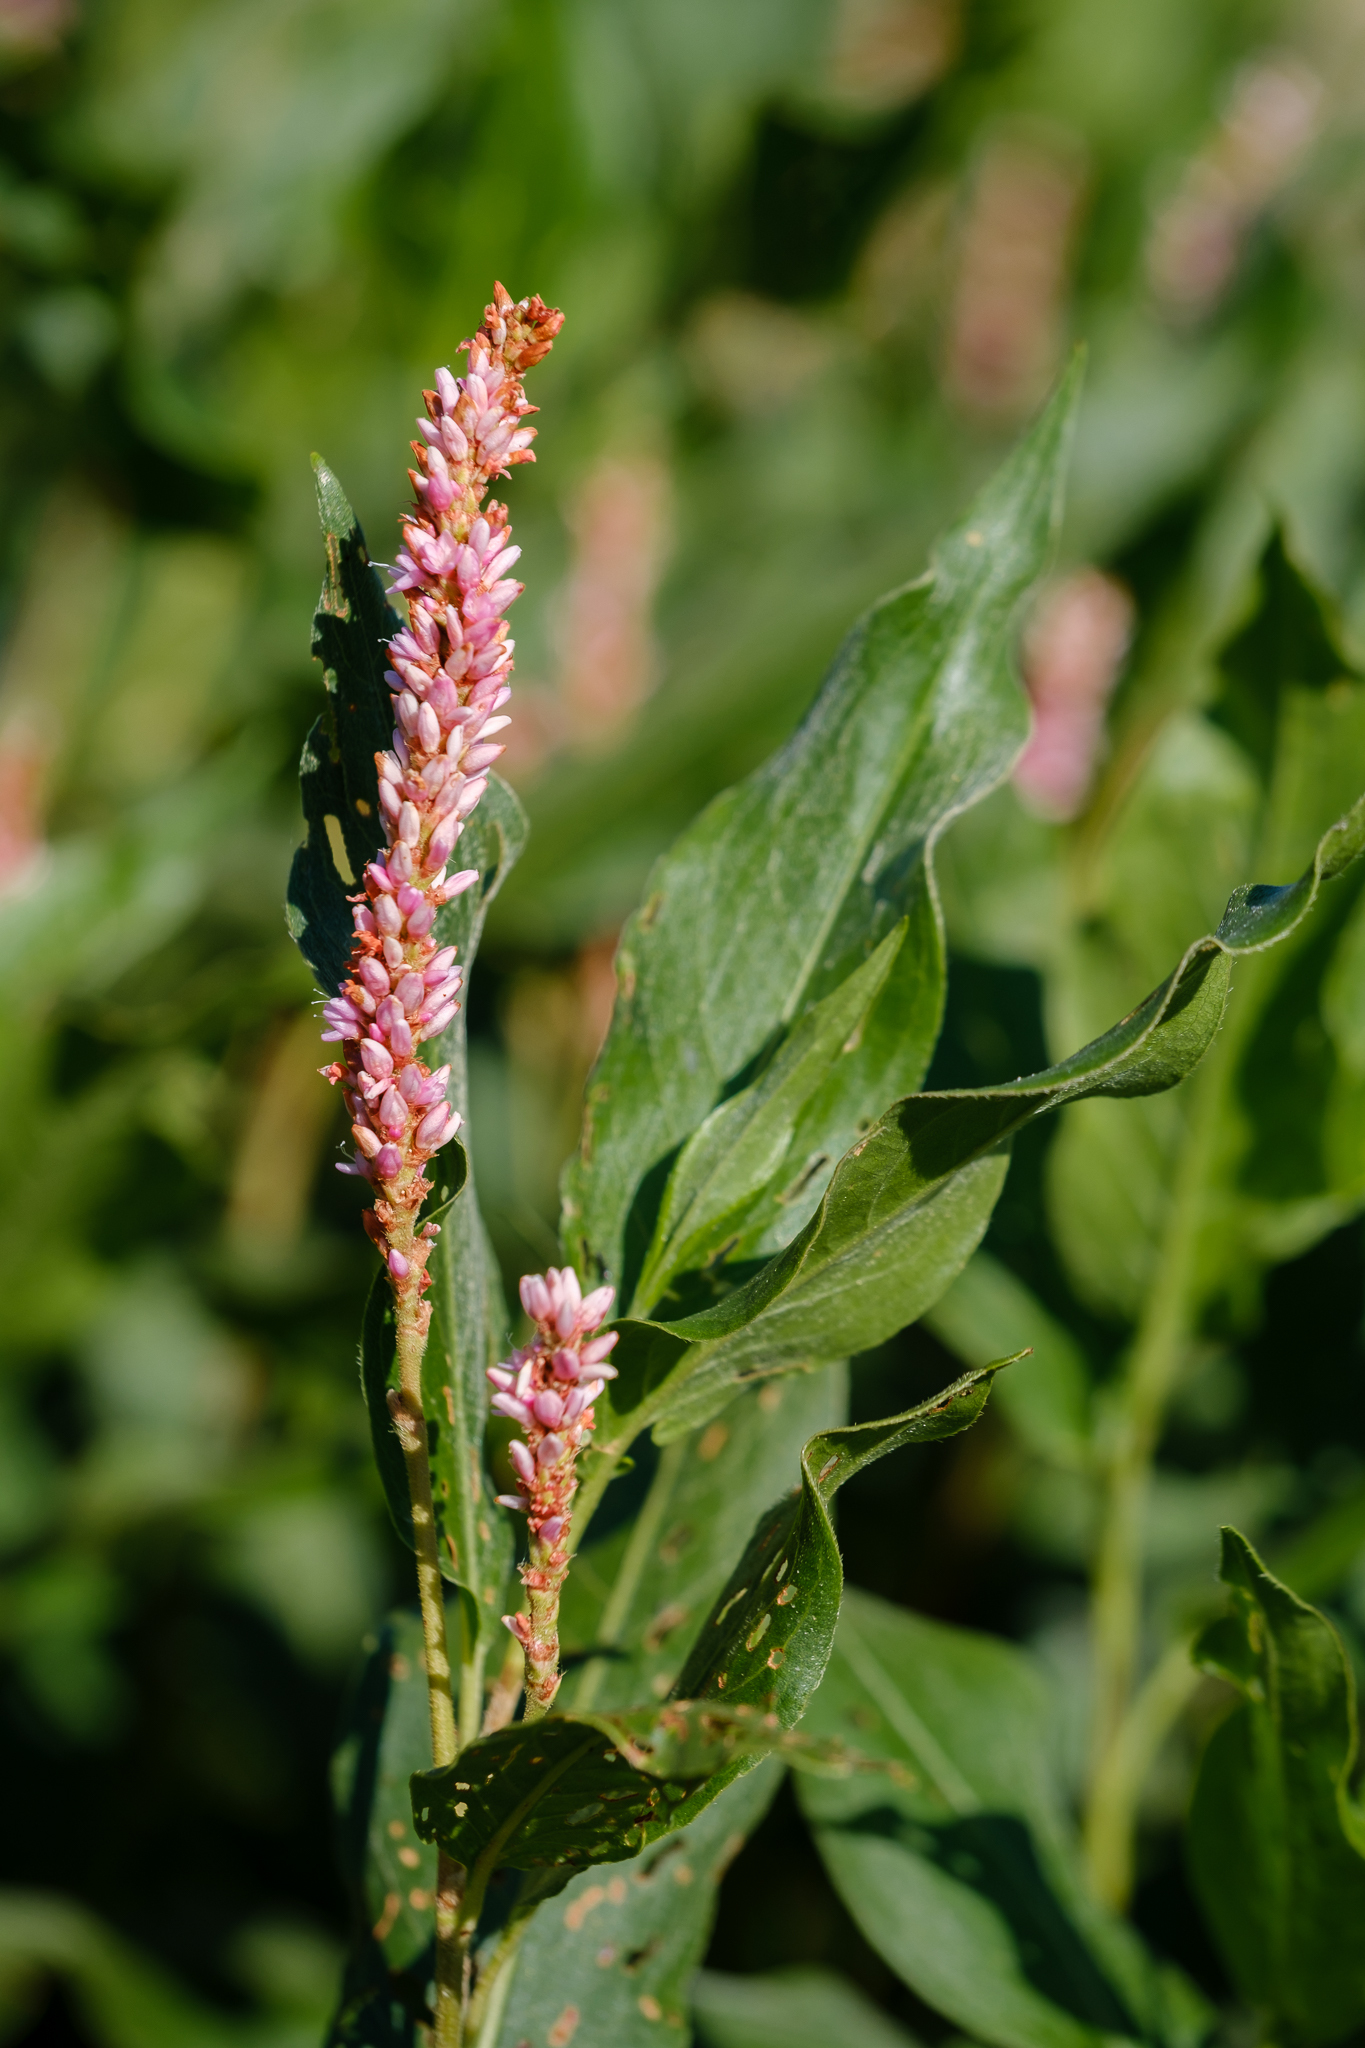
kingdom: Plantae
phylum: Tracheophyta
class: Magnoliopsida
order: Caryophyllales
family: Polygonaceae
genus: Persicaria
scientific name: Persicaria amphibia
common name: Amphibious bistort
